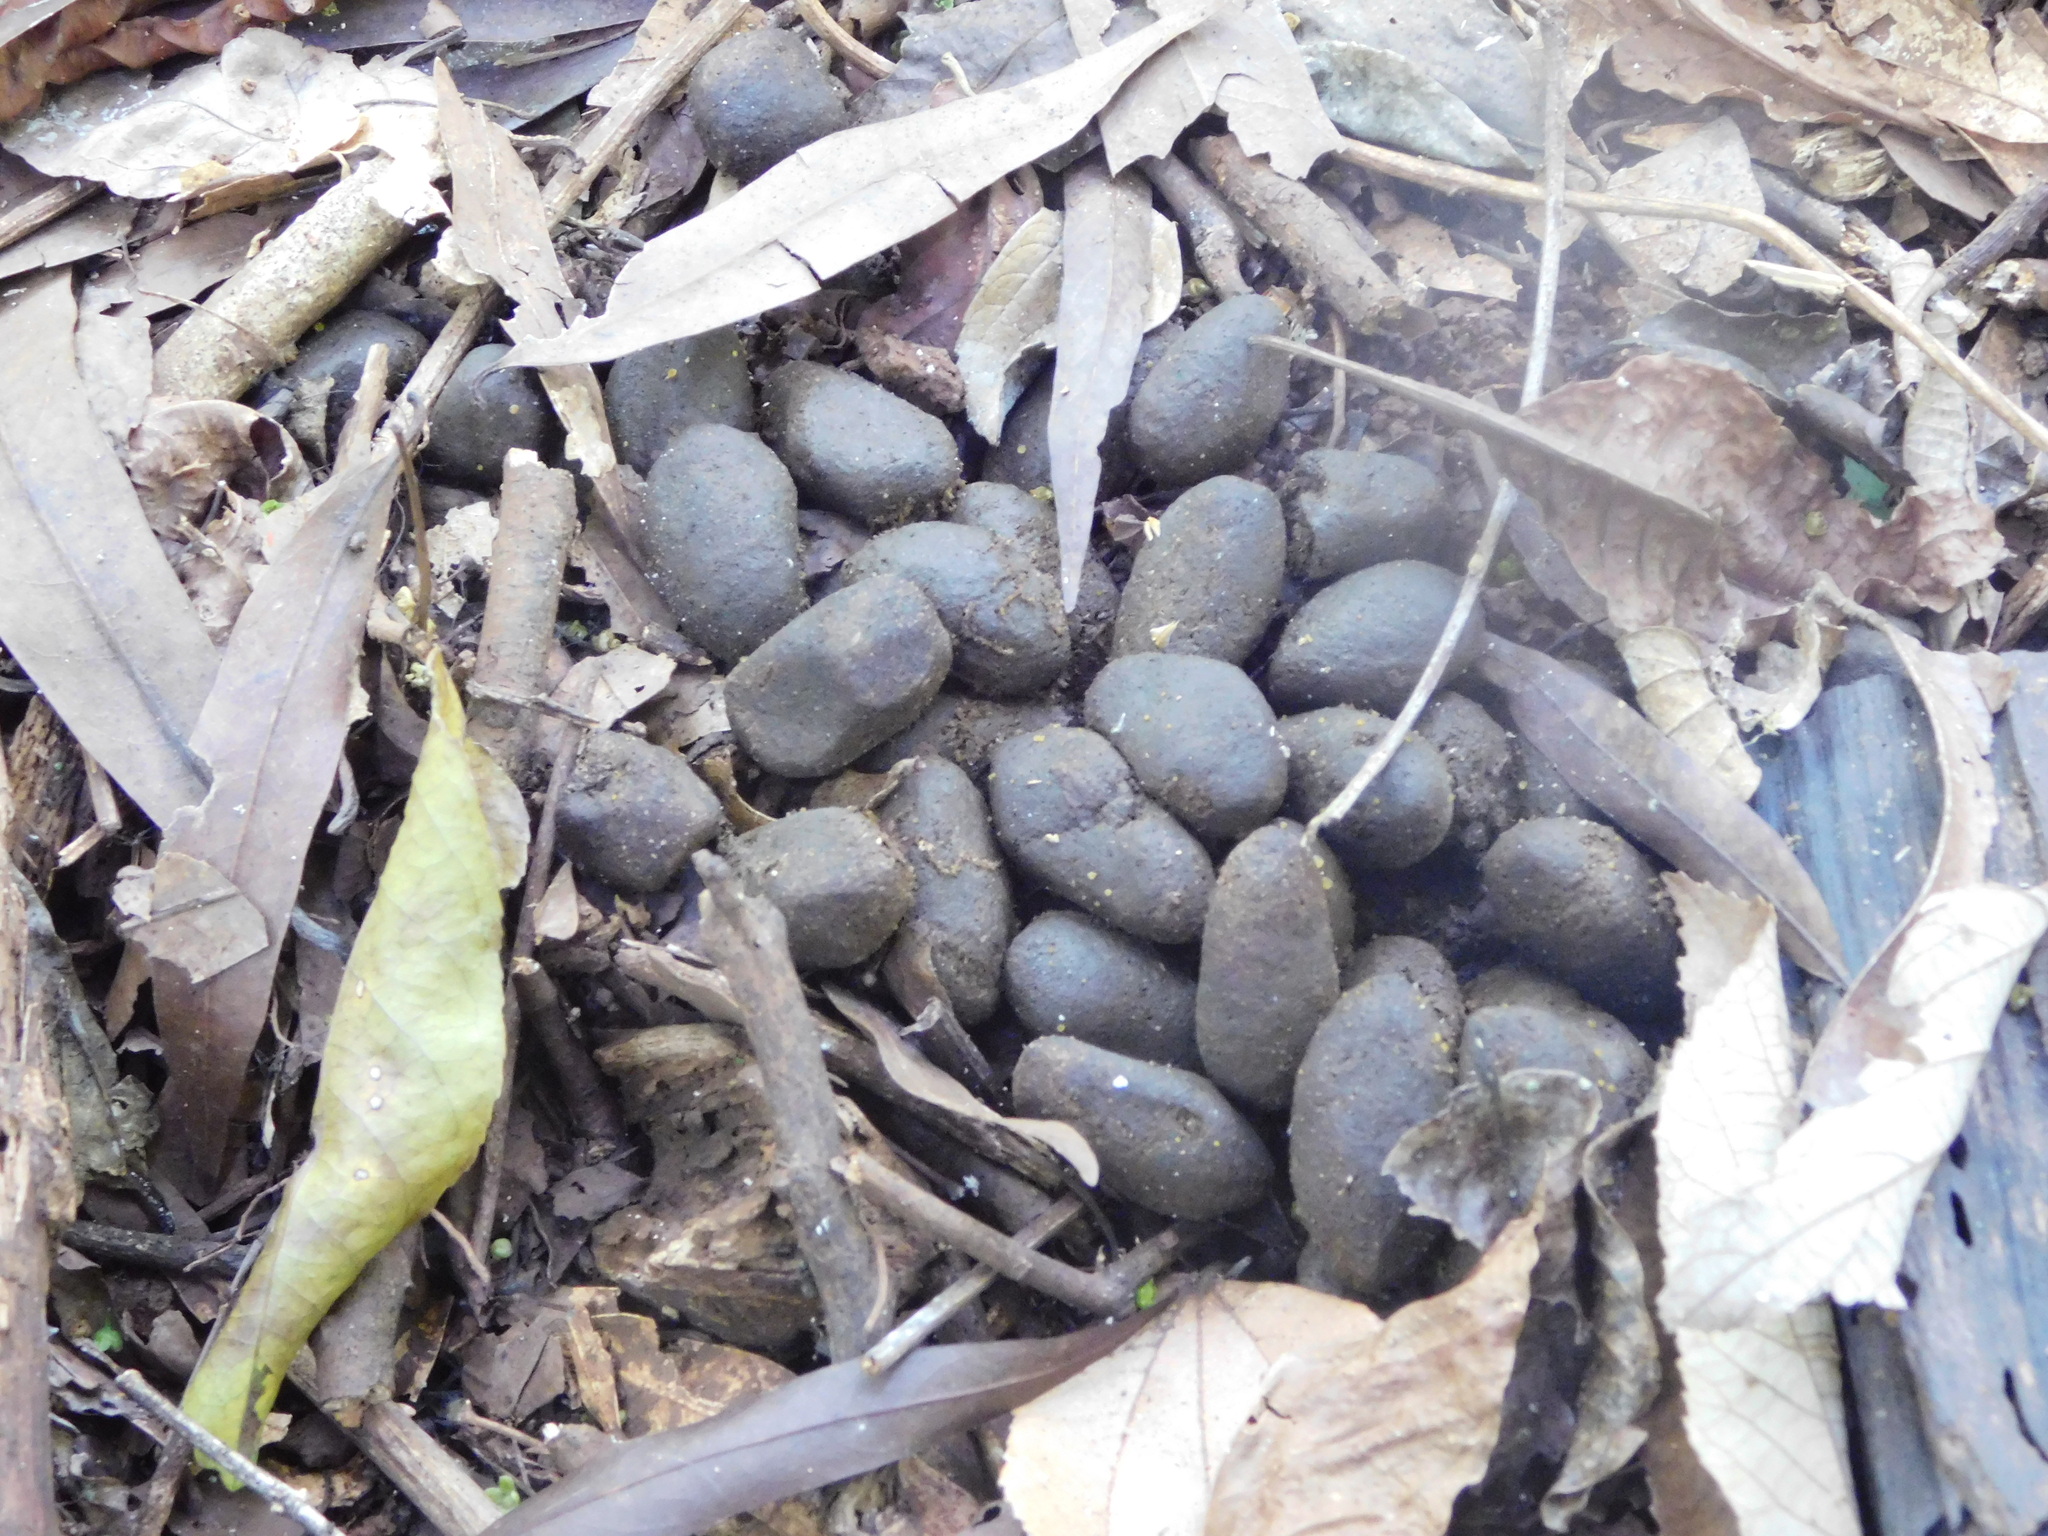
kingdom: Animalia
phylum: Chordata
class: Mammalia
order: Rodentia
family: Caviidae
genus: Hydrochoerus
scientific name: Hydrochoerus hydrochaeris
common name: Capybara
